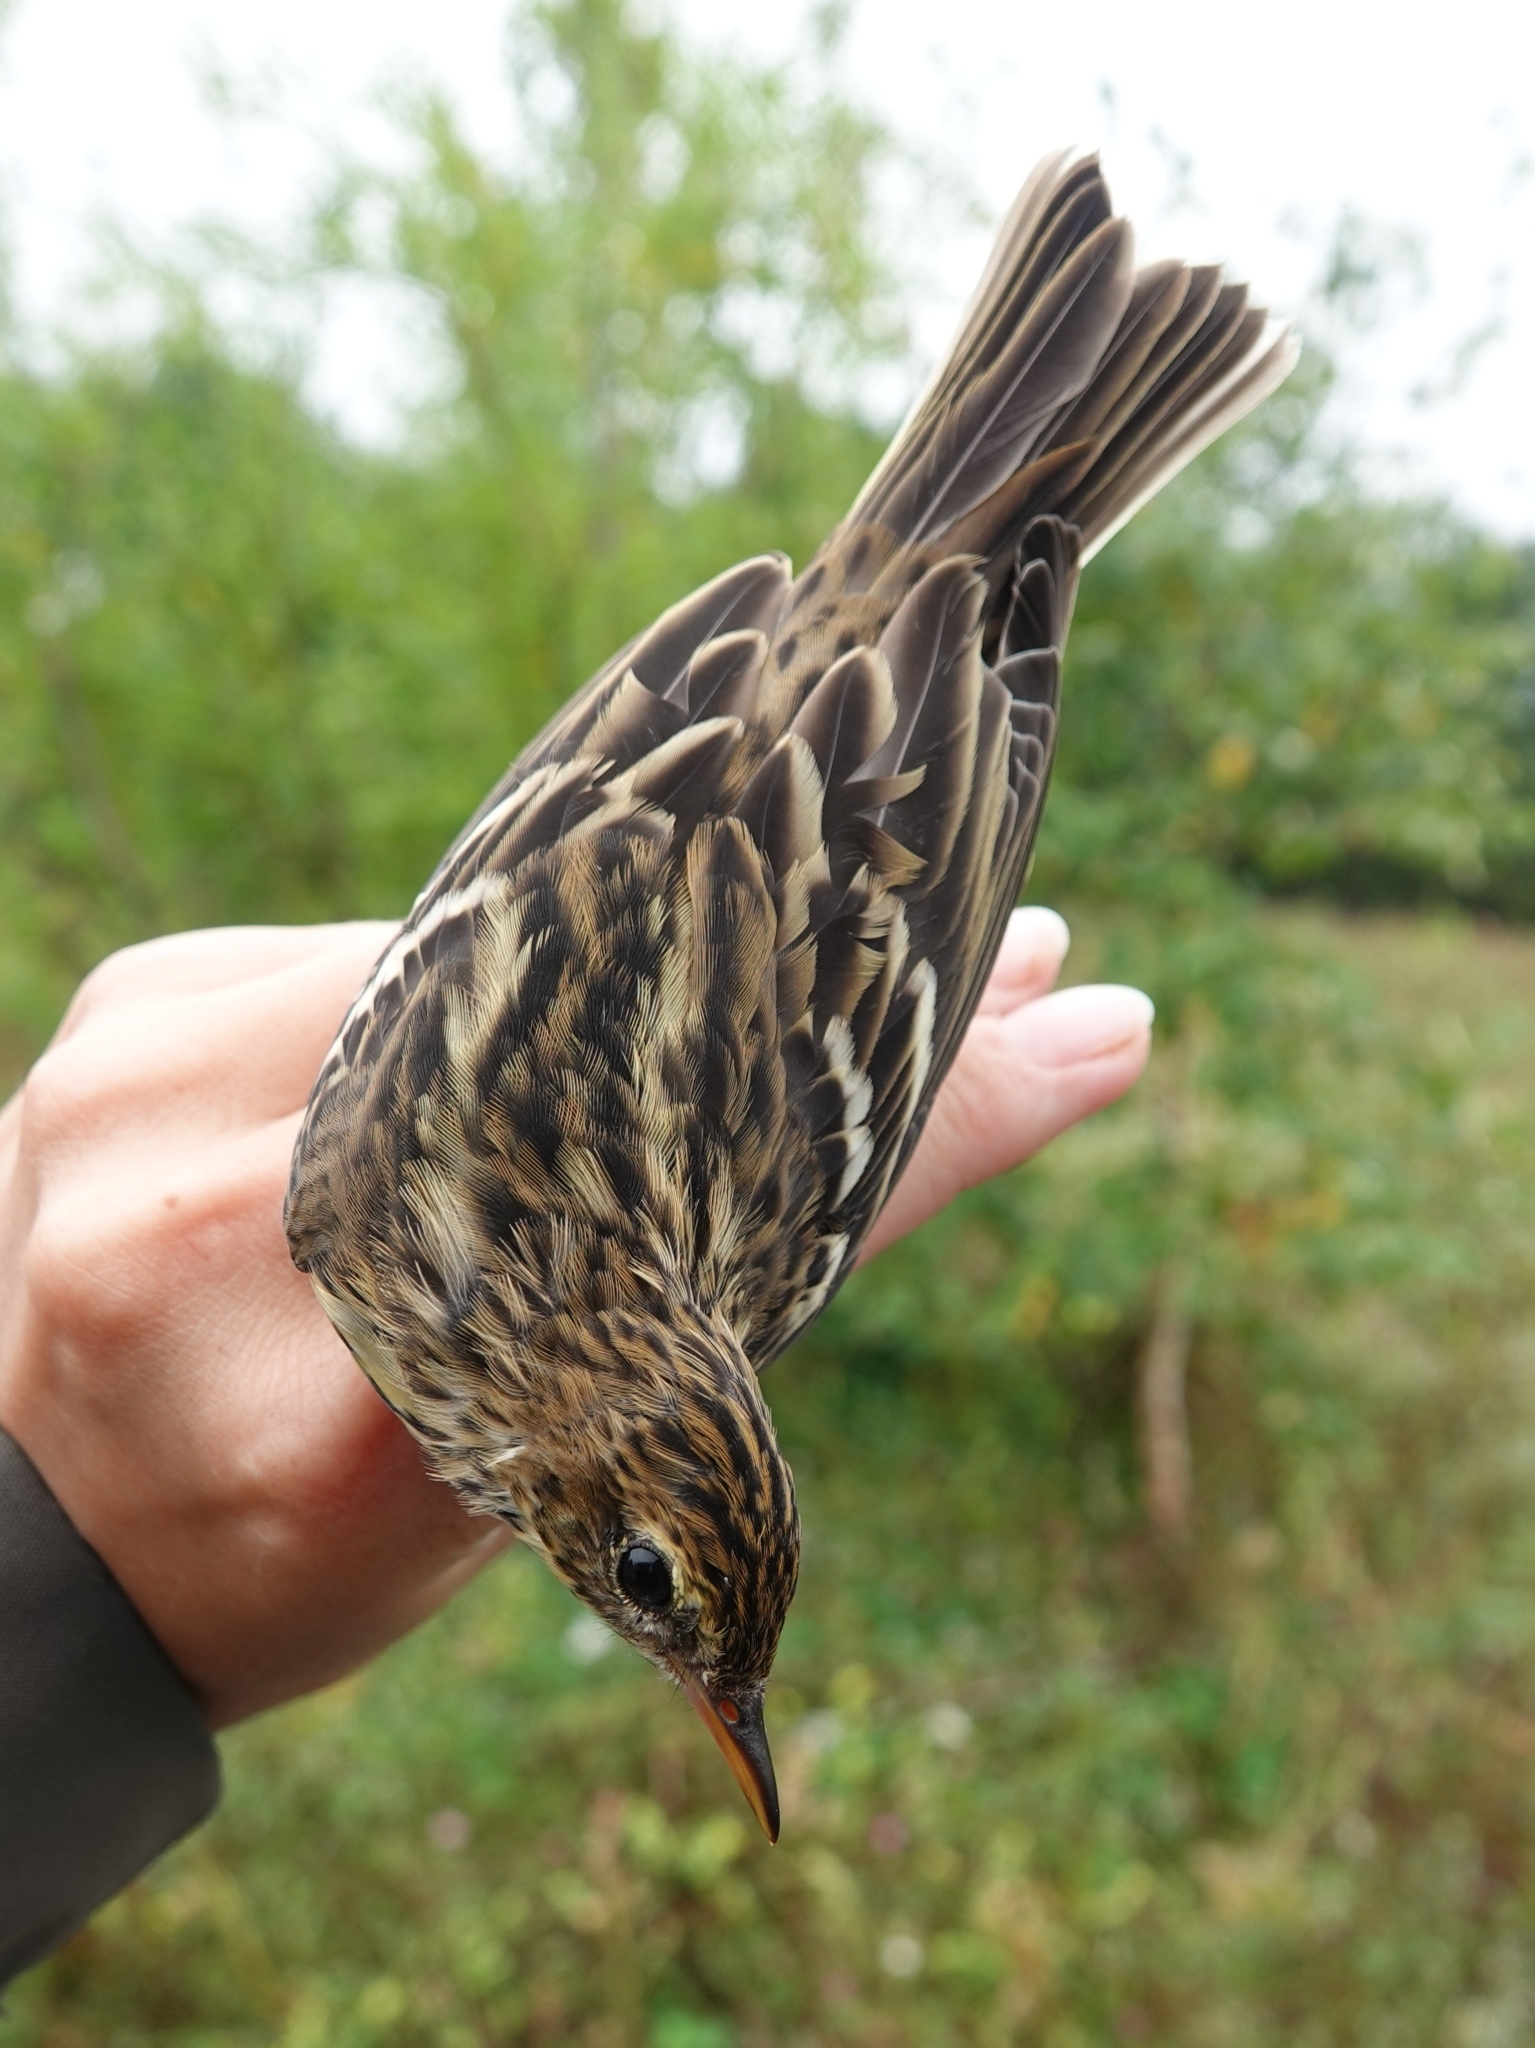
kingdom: Animalia
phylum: Chordata
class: Aves
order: Passeriformes
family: Motacillidae
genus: Anthus
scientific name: Anthus gustavi
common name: Pechora pipit
